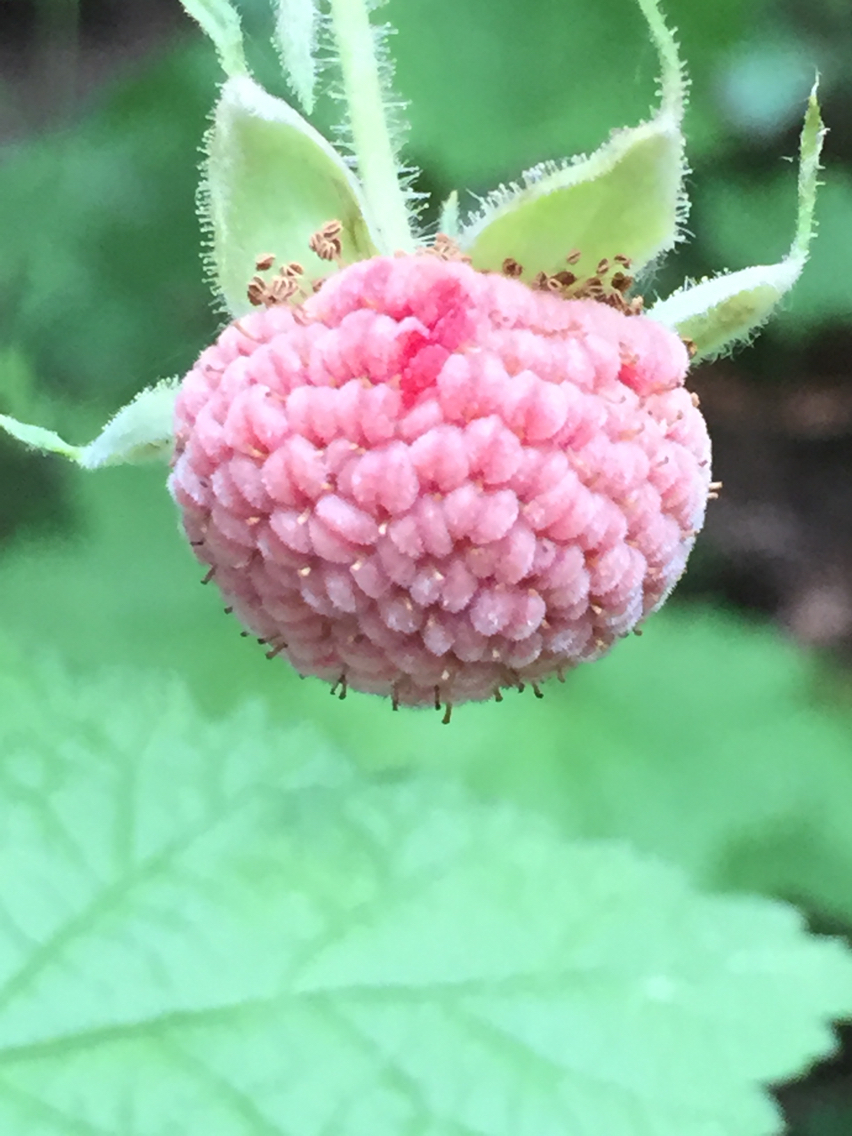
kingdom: Plantae
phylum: Tracheophyta
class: Magnoliopsida
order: Rosales
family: Rosaceae
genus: Rubus
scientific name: Rubus parviflorus
